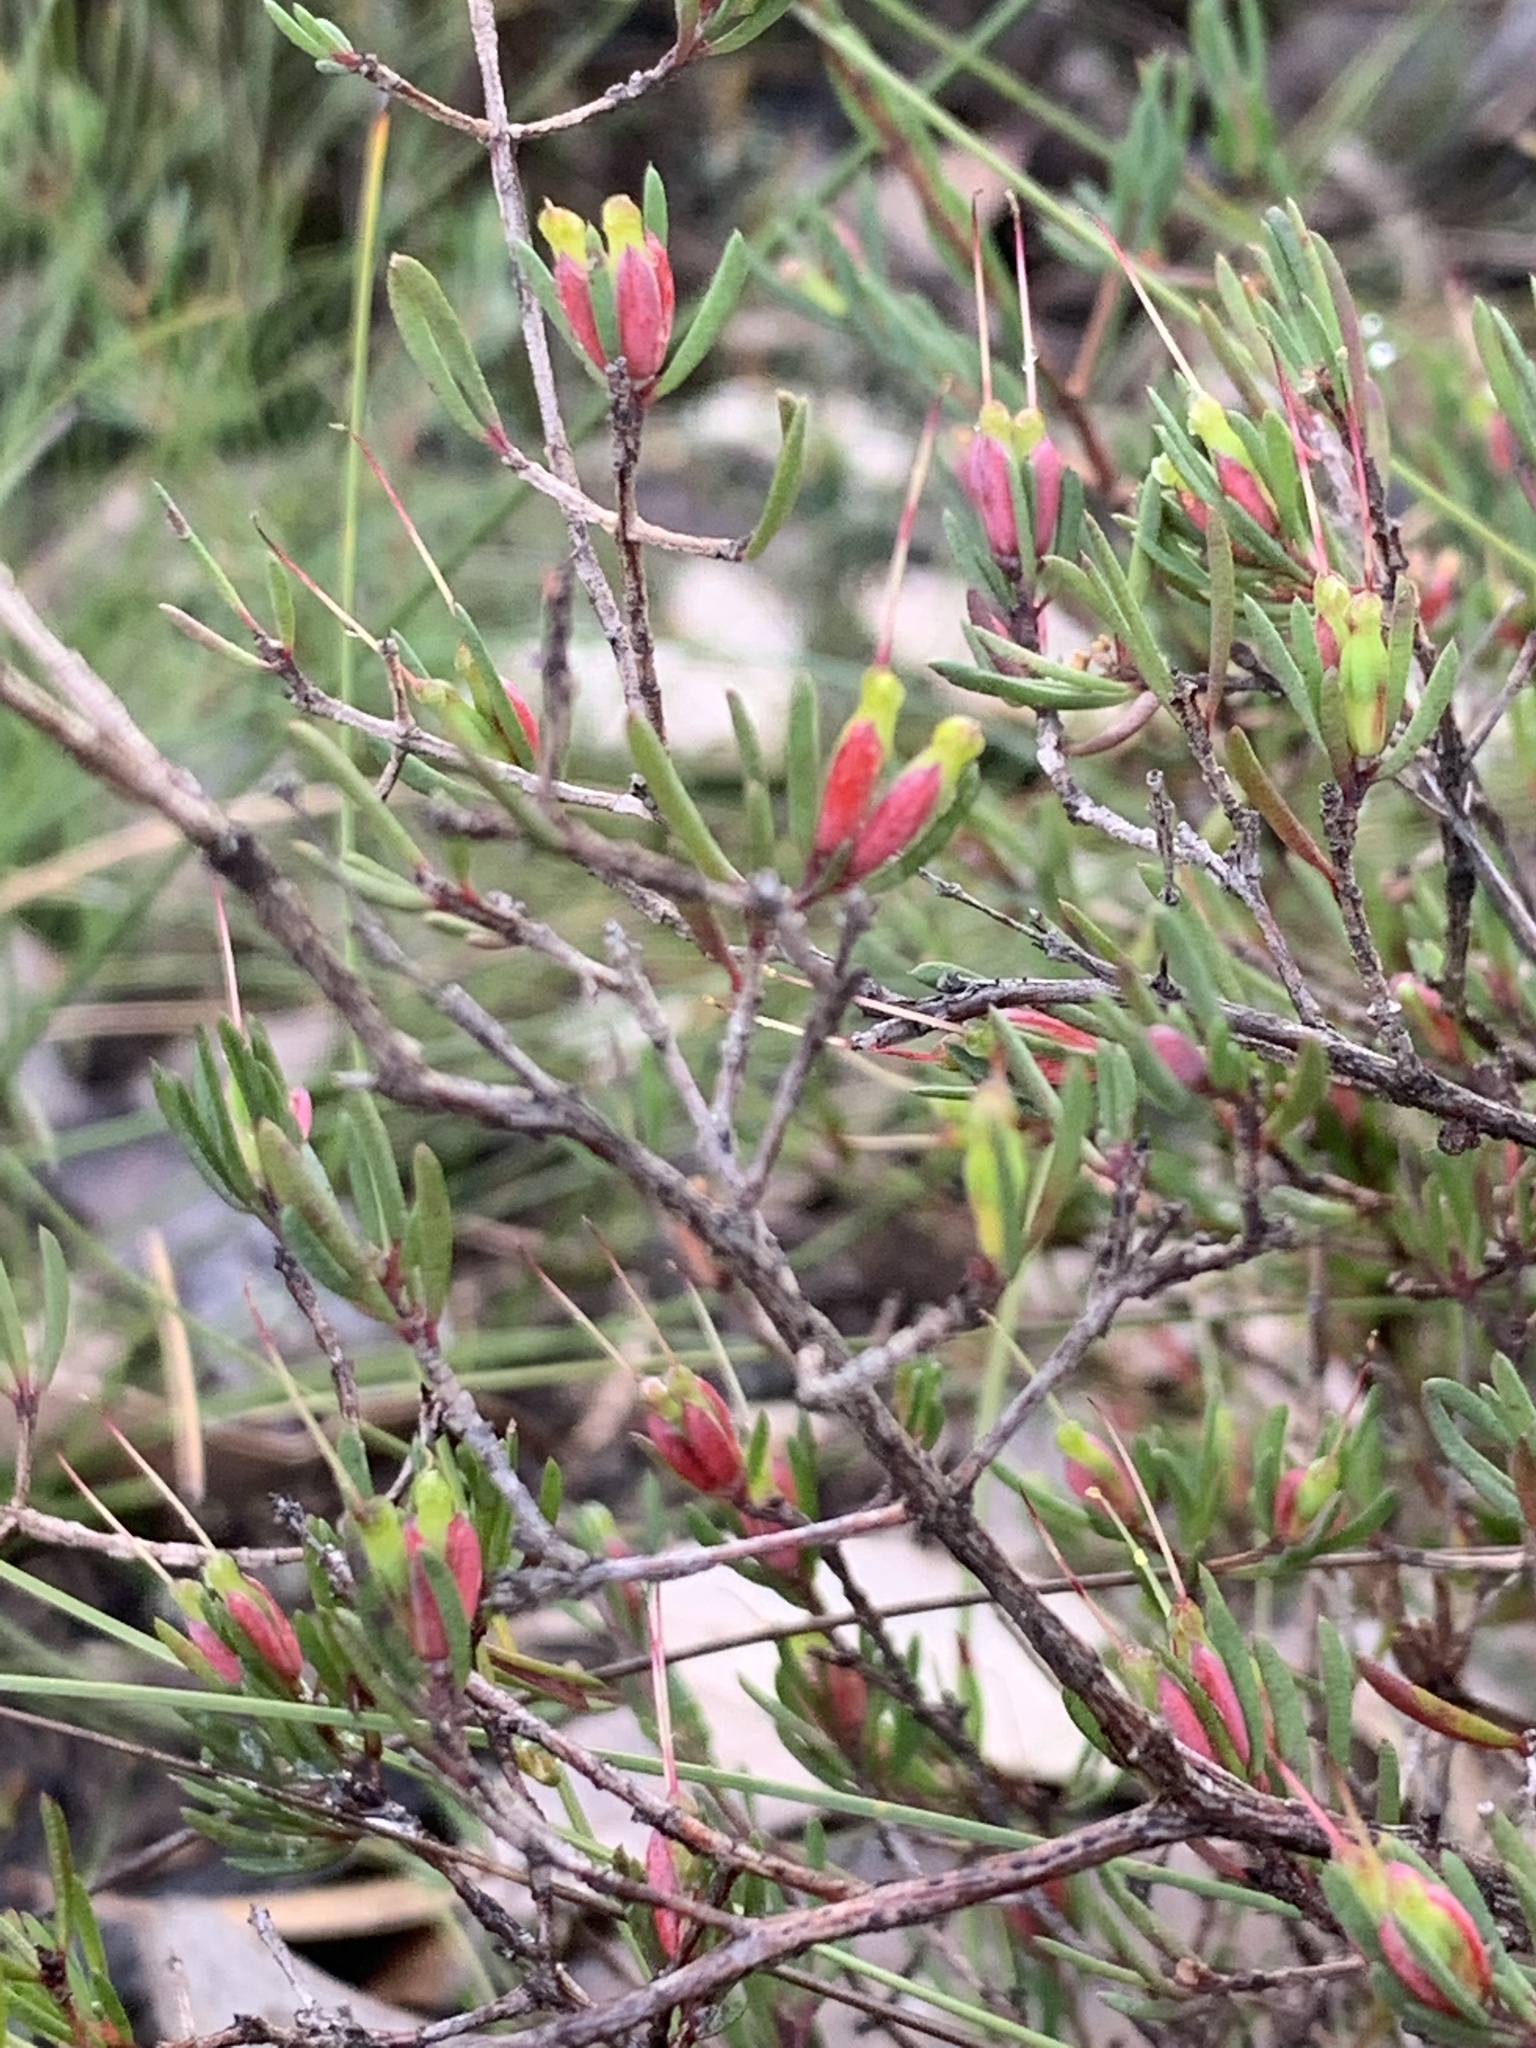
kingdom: Plantae
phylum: Tracheophyta
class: Magnoliopsida
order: Myrtales
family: Myrtaceae
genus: Darwinia
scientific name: Darwinia biflora
